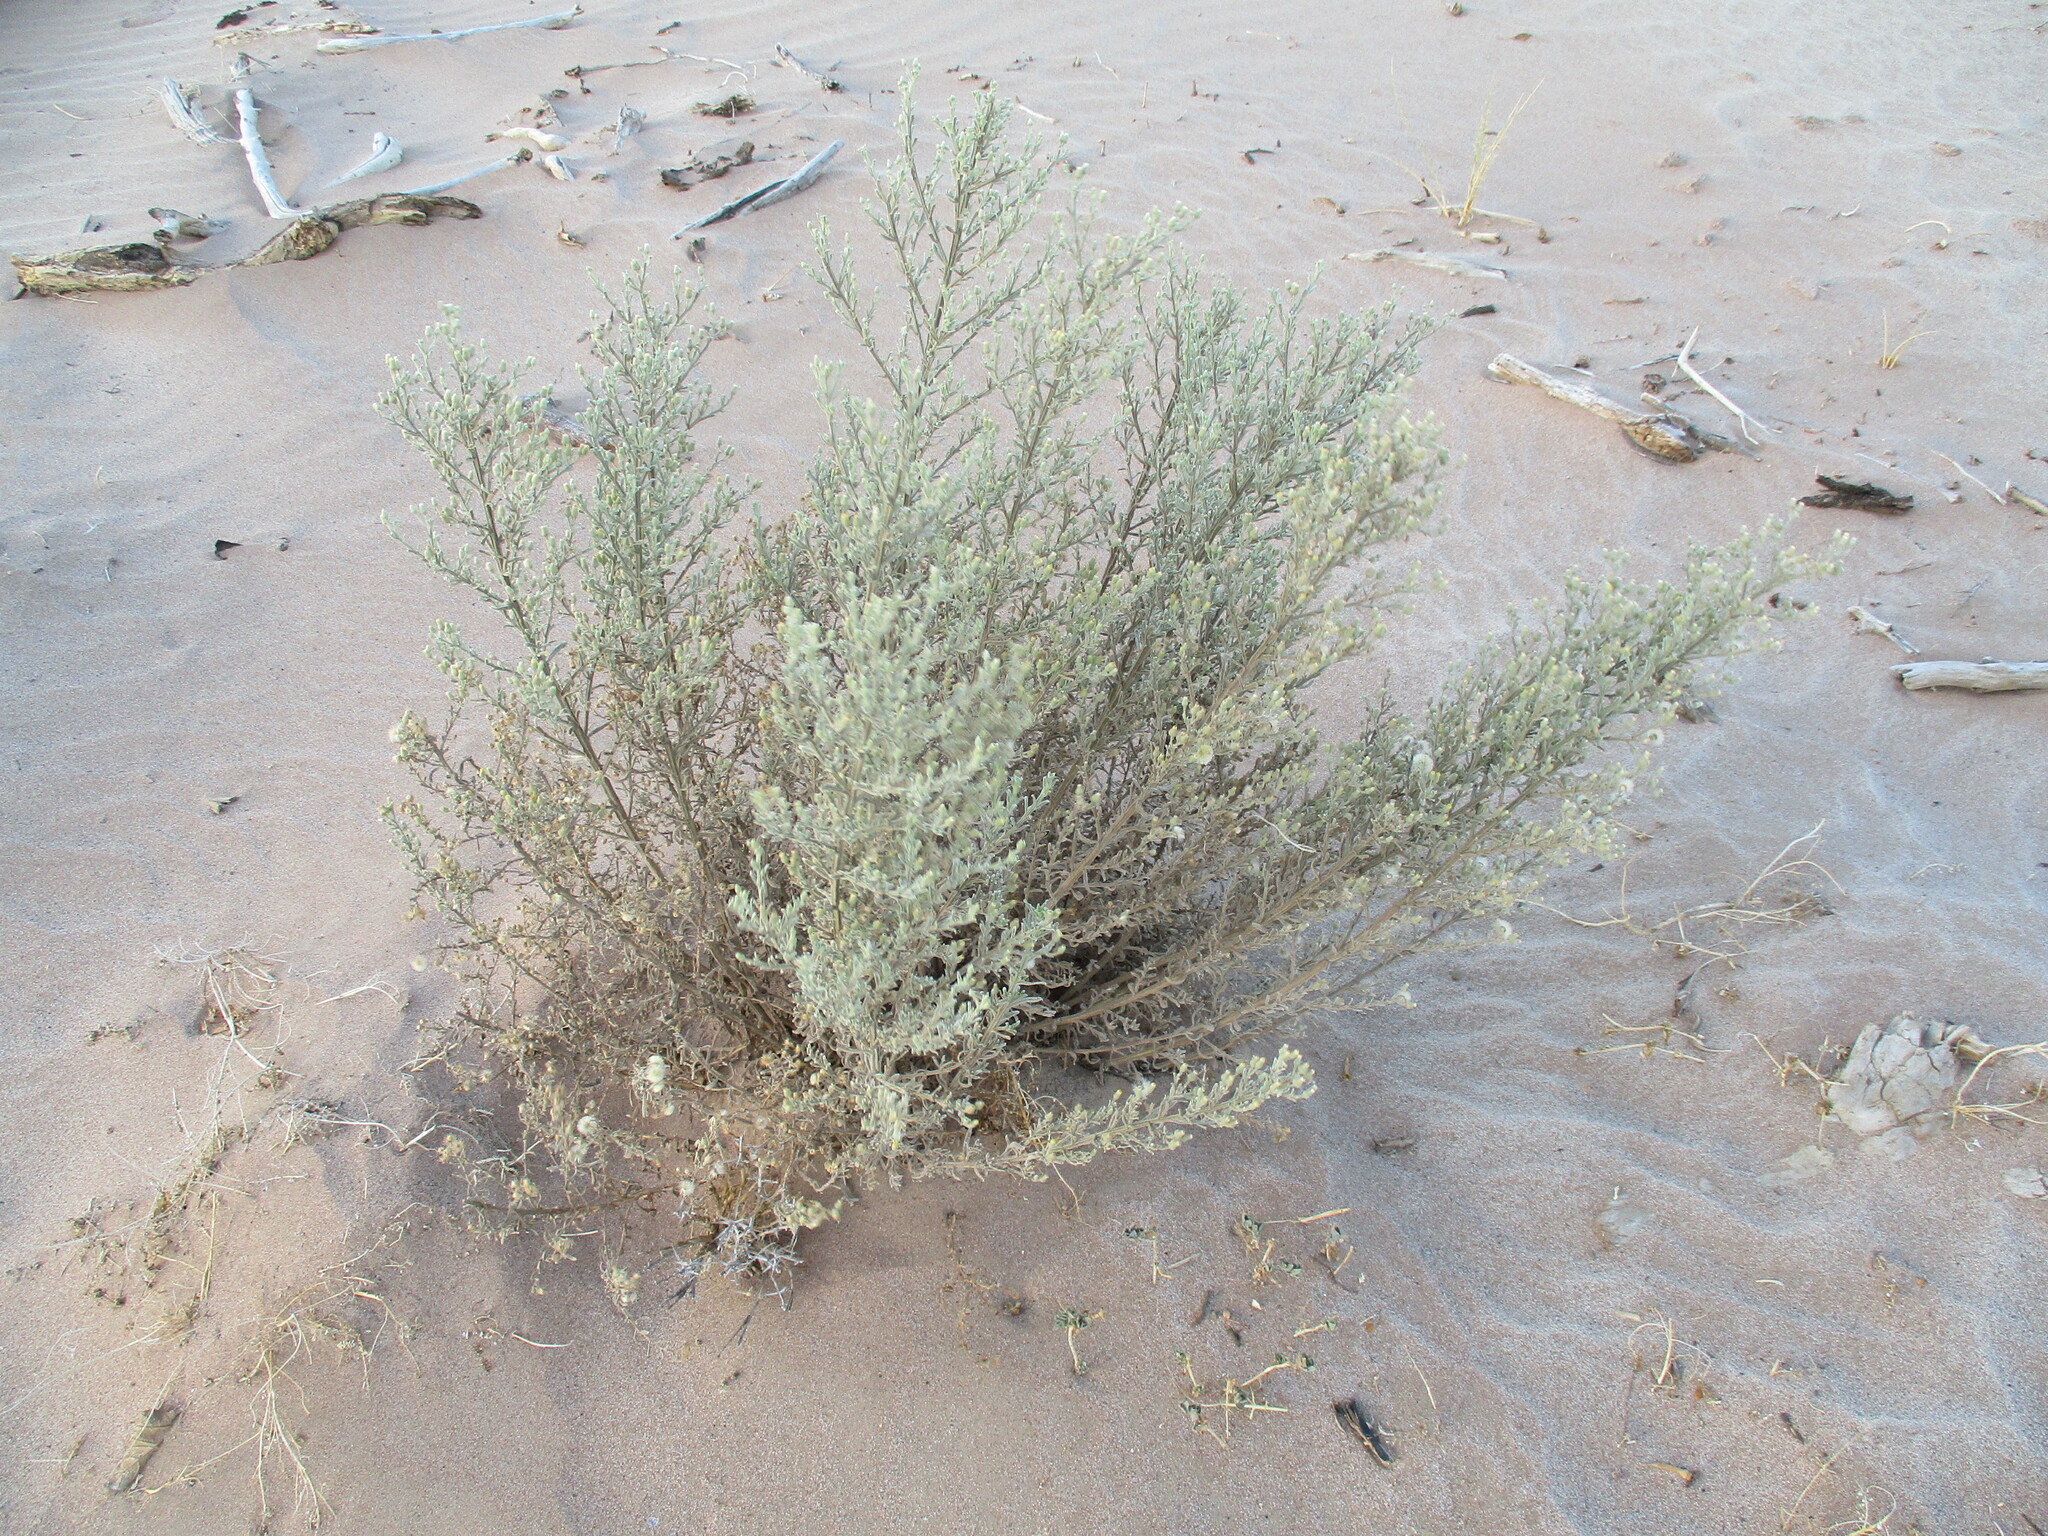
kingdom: Plantae
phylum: Tracheophyta
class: Magnoliopsida
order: Asterales
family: Asteraceae
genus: Galgera
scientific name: Galgera decurrens
